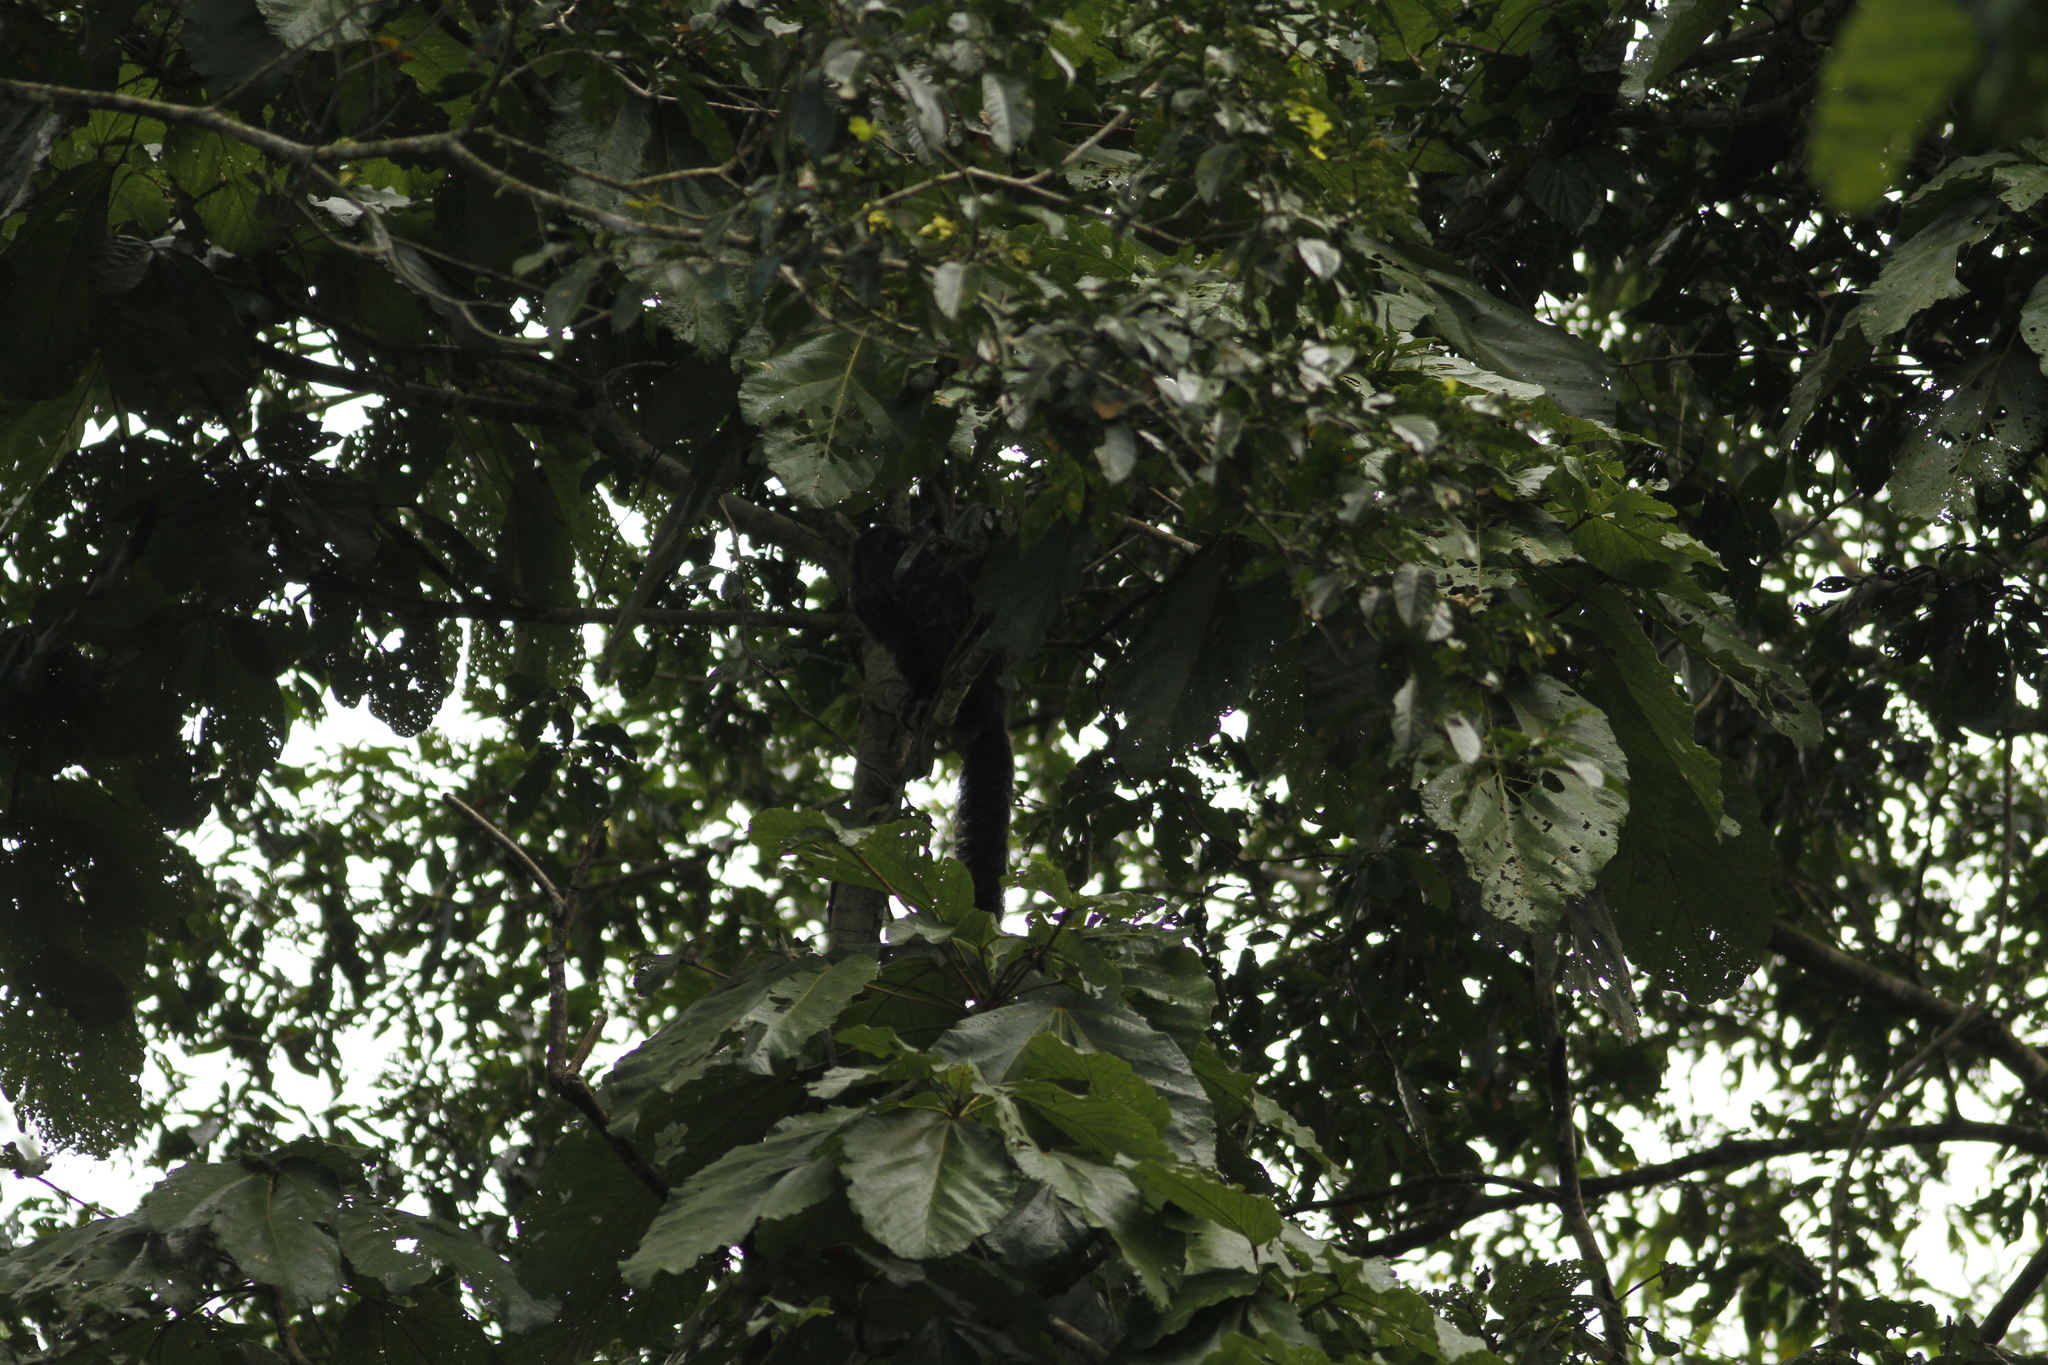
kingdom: Animalia
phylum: Chordata
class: Mammalia
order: Primates
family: Pitheciidae
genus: Pithecia
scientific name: Pithecia milleri
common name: Miller's saki
